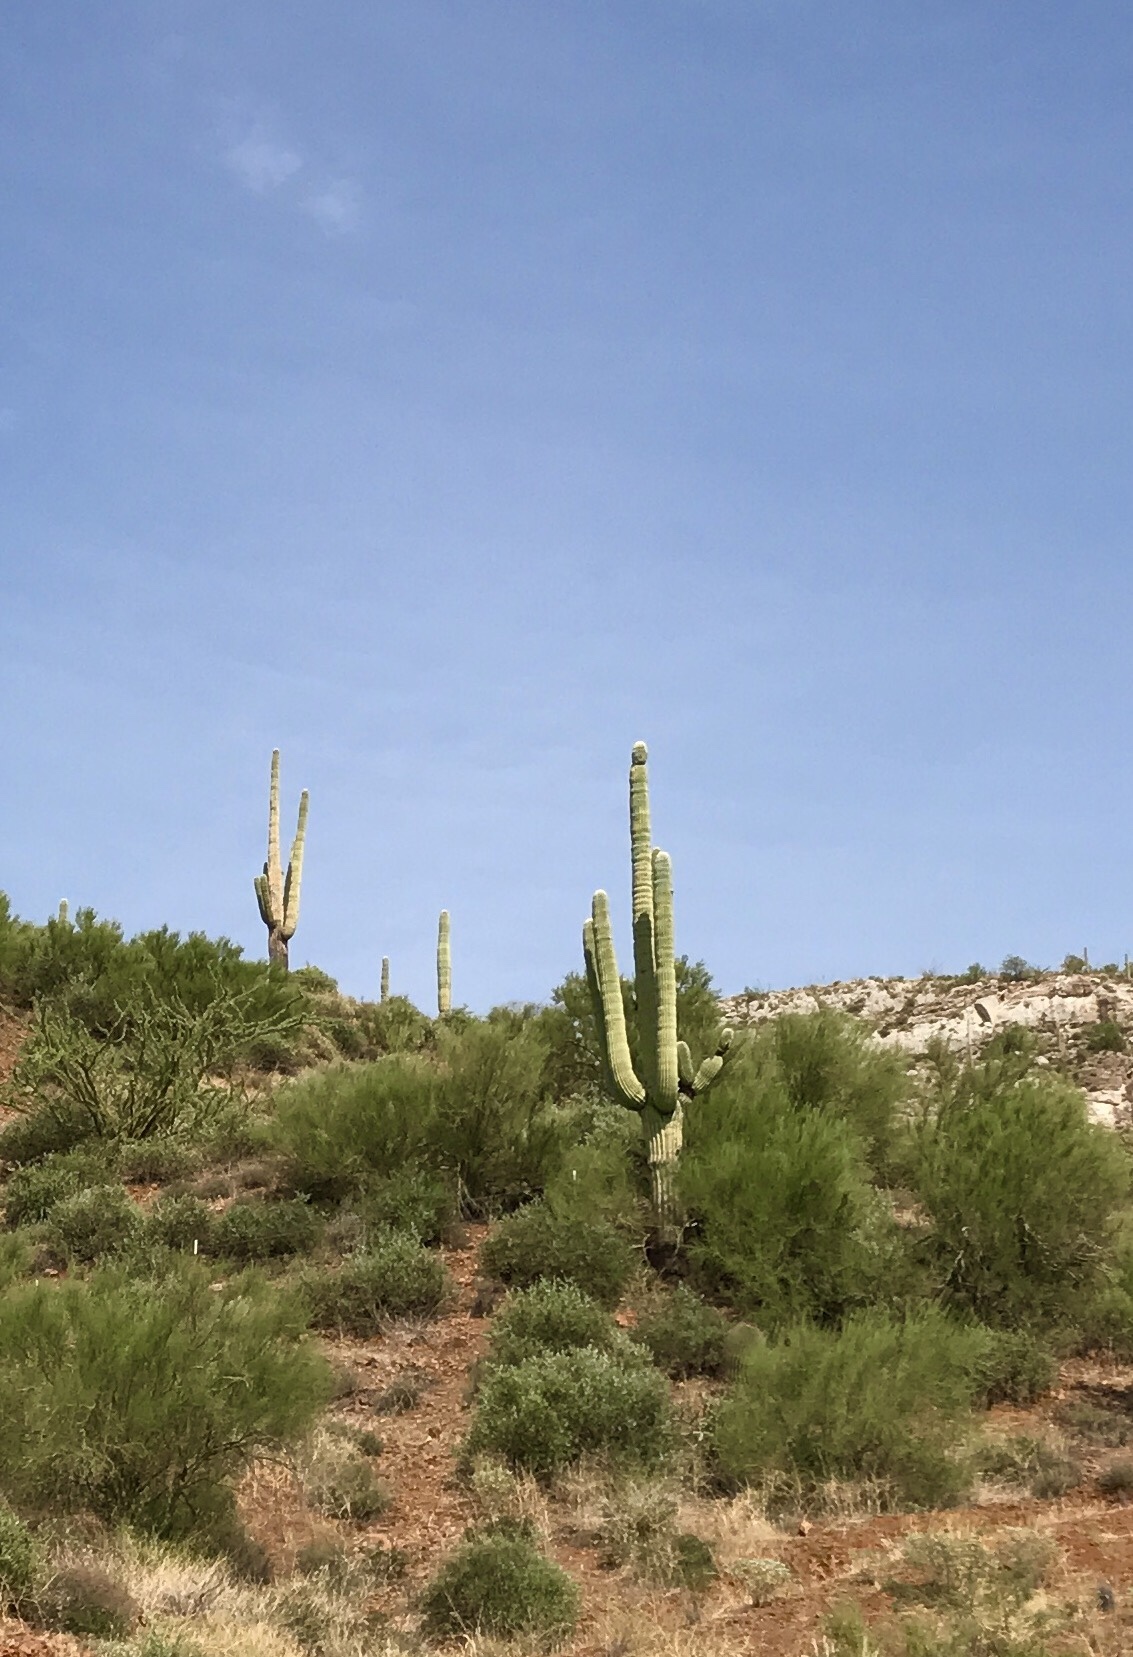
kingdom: Plantae
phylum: Tracheophyta
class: Magnoliopsida
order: Caryophyllales
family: Cactaceae
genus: Carnegiea
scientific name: Carnegiea gigantea
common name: Saguaro
